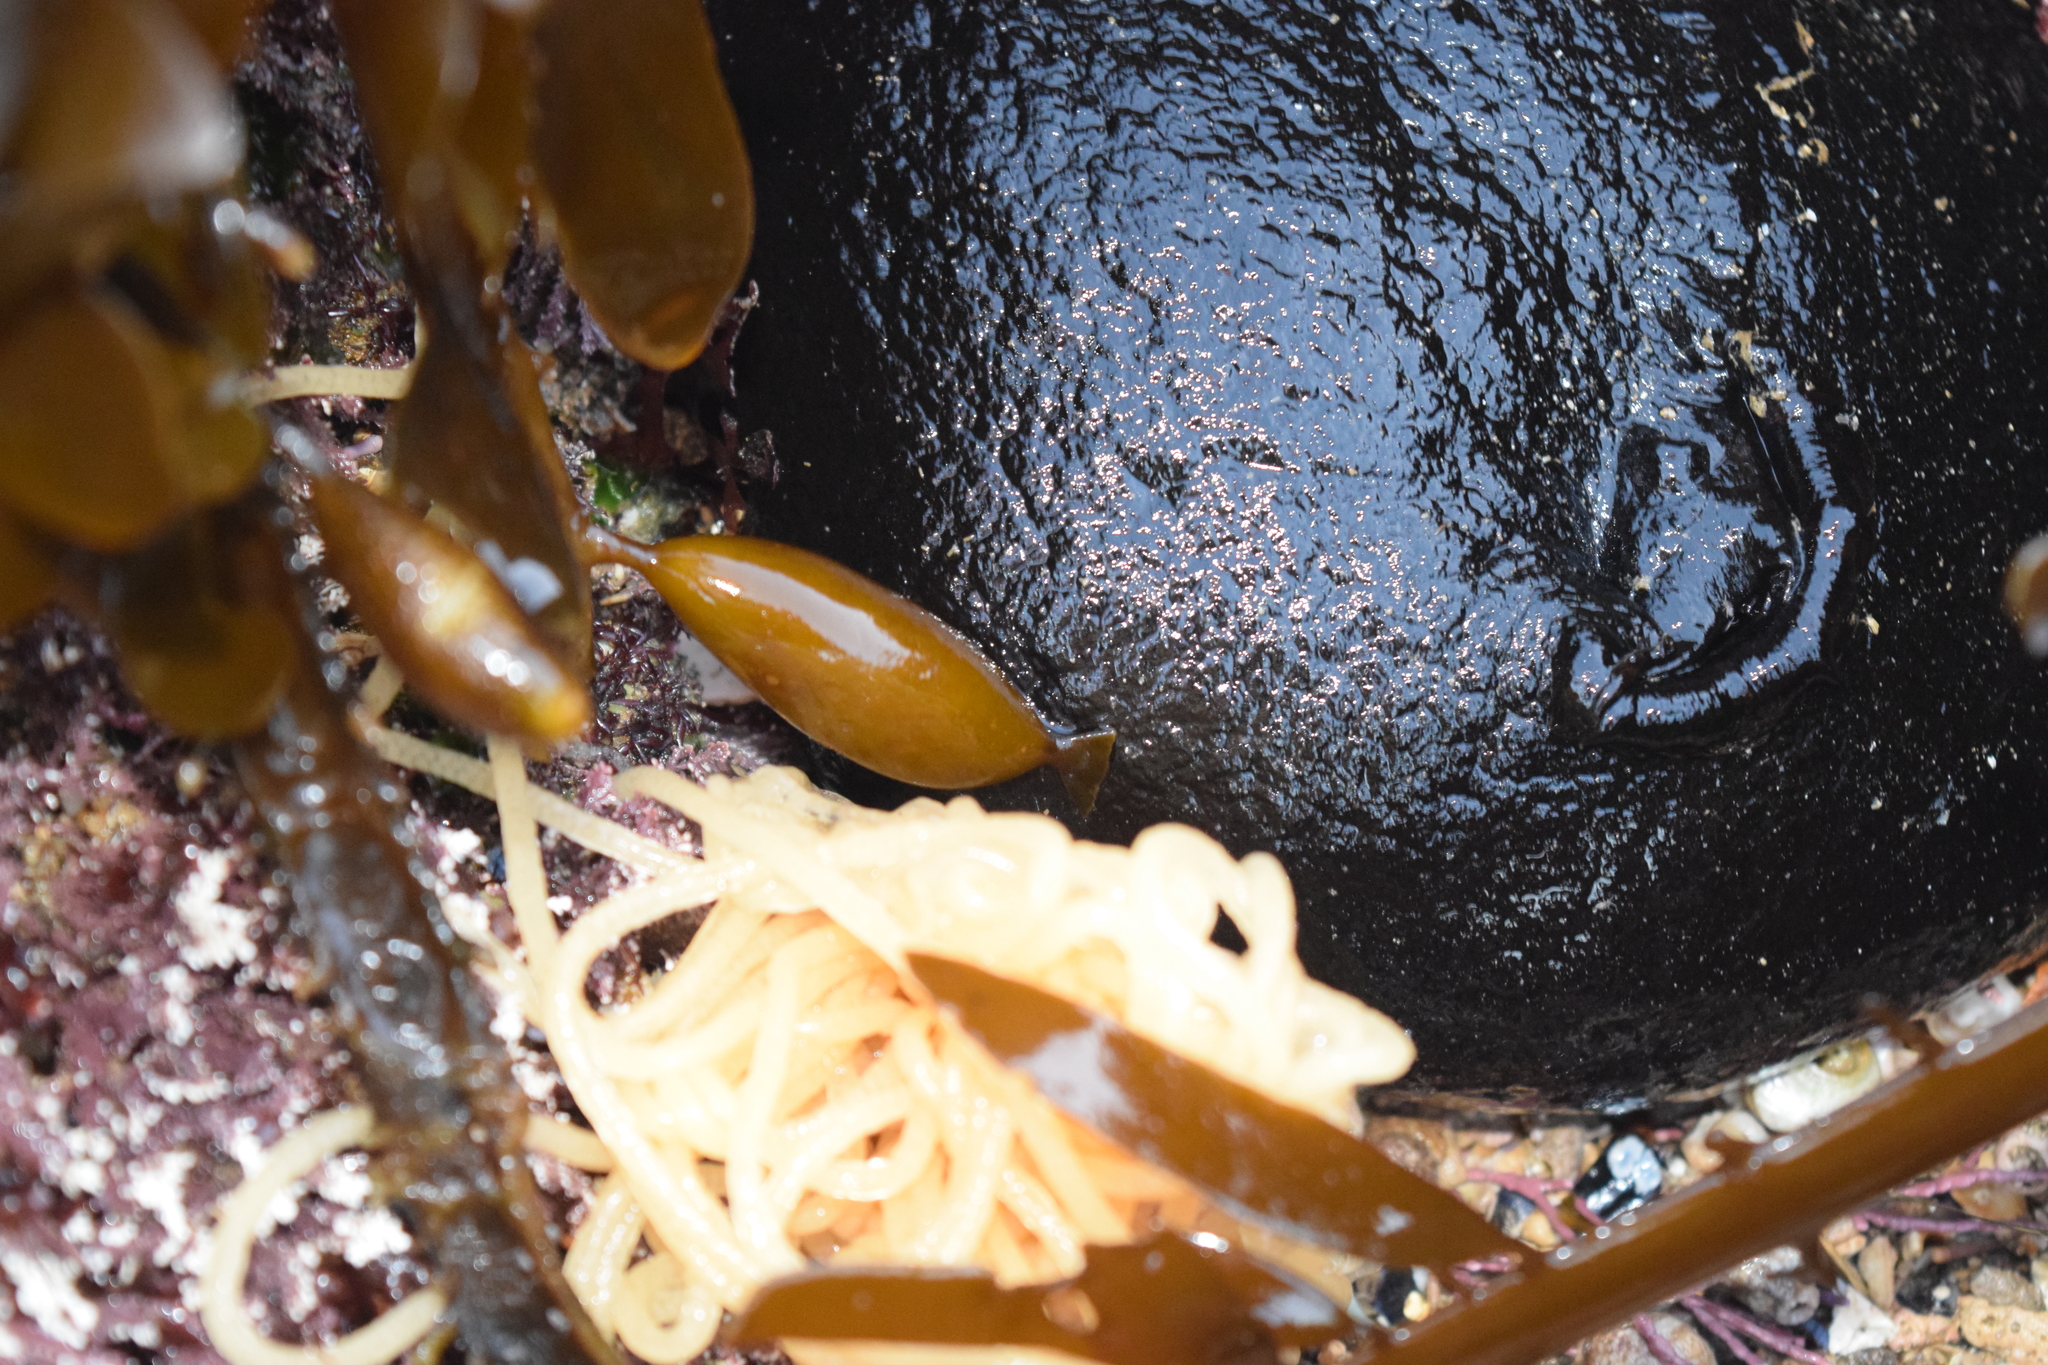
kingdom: Animalia
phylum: Mollusca
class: Gastropoda
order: Aplysiida
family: Aplysiidae
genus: Aplysia
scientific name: Aplysia vaccaria
